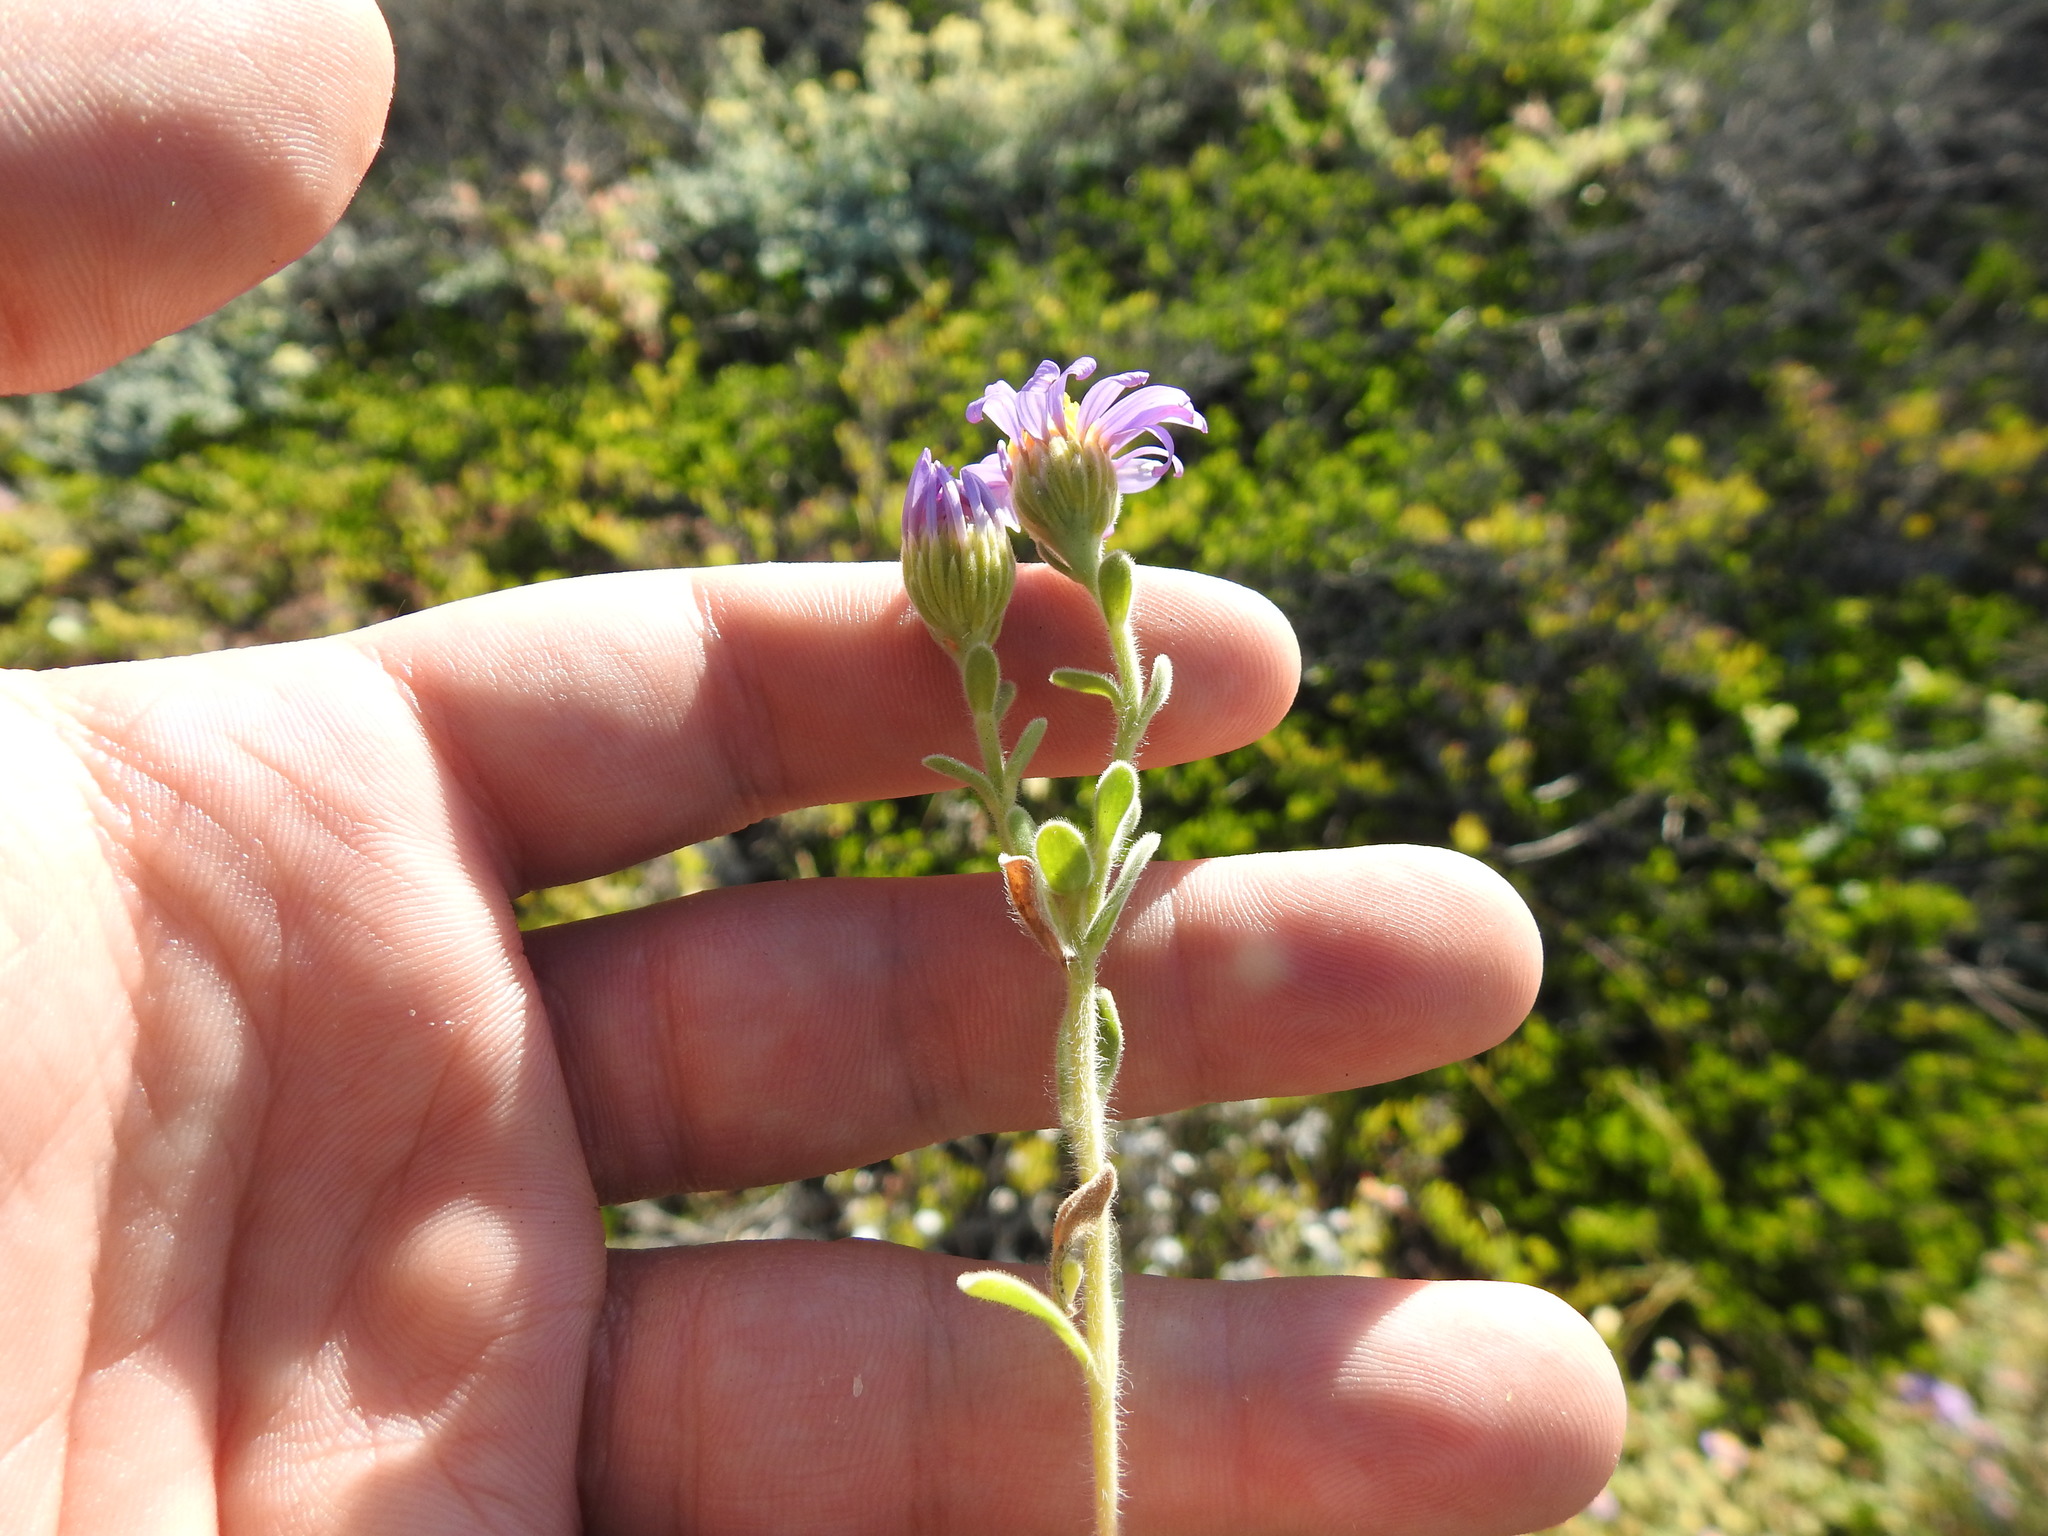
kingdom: Plantae
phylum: Tracheophyta
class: Magnoliopsida
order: Asterales
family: Asteraceae
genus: Amellus
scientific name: Amellus asteroides
